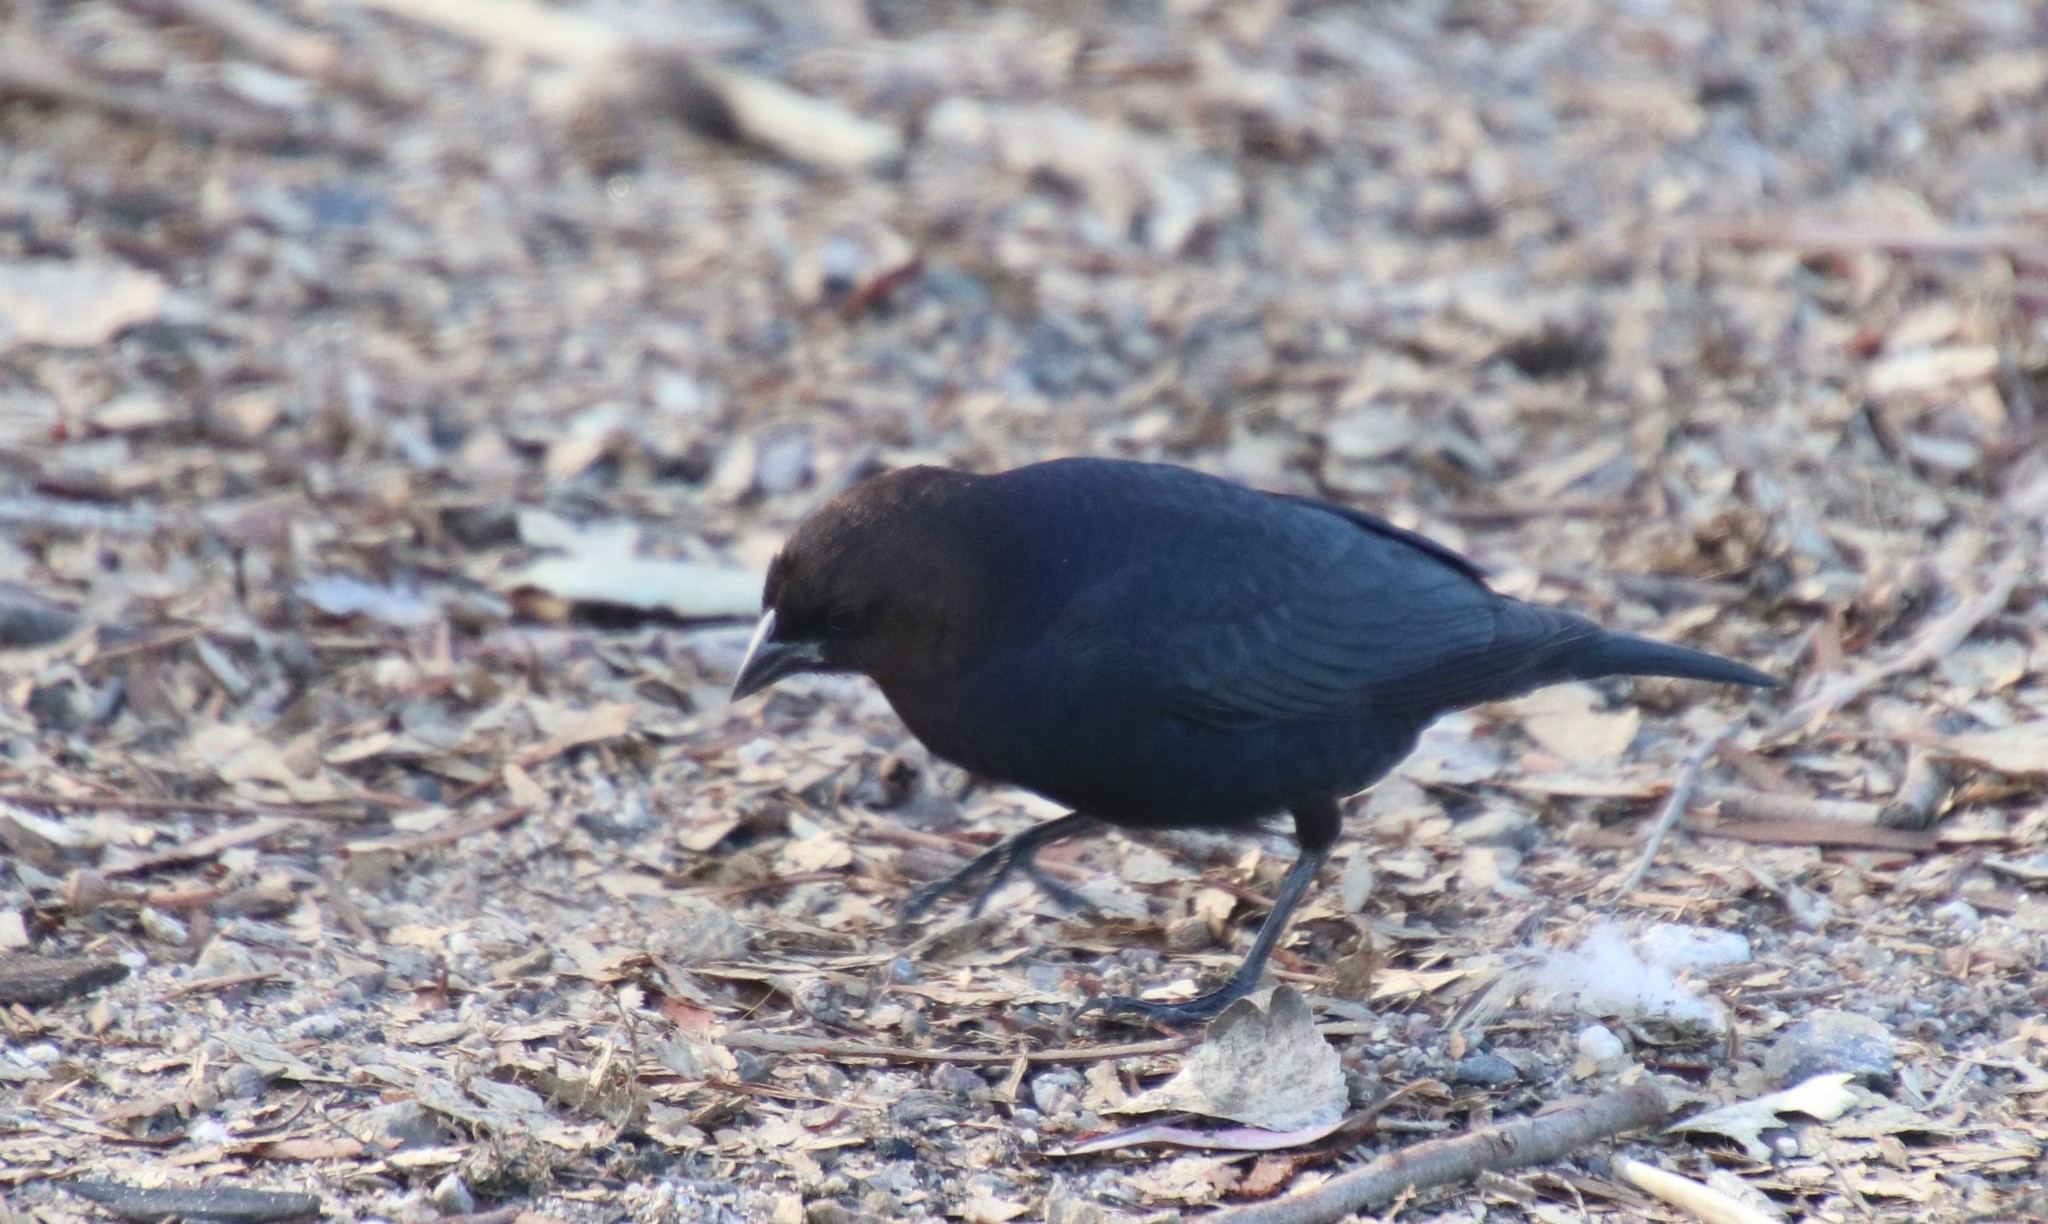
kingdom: Animalia
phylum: Chordata
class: Aves
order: Passeriformes
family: Icteridae
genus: Molothrus
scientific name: Molothrus ater
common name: Brown-headed cowbird
